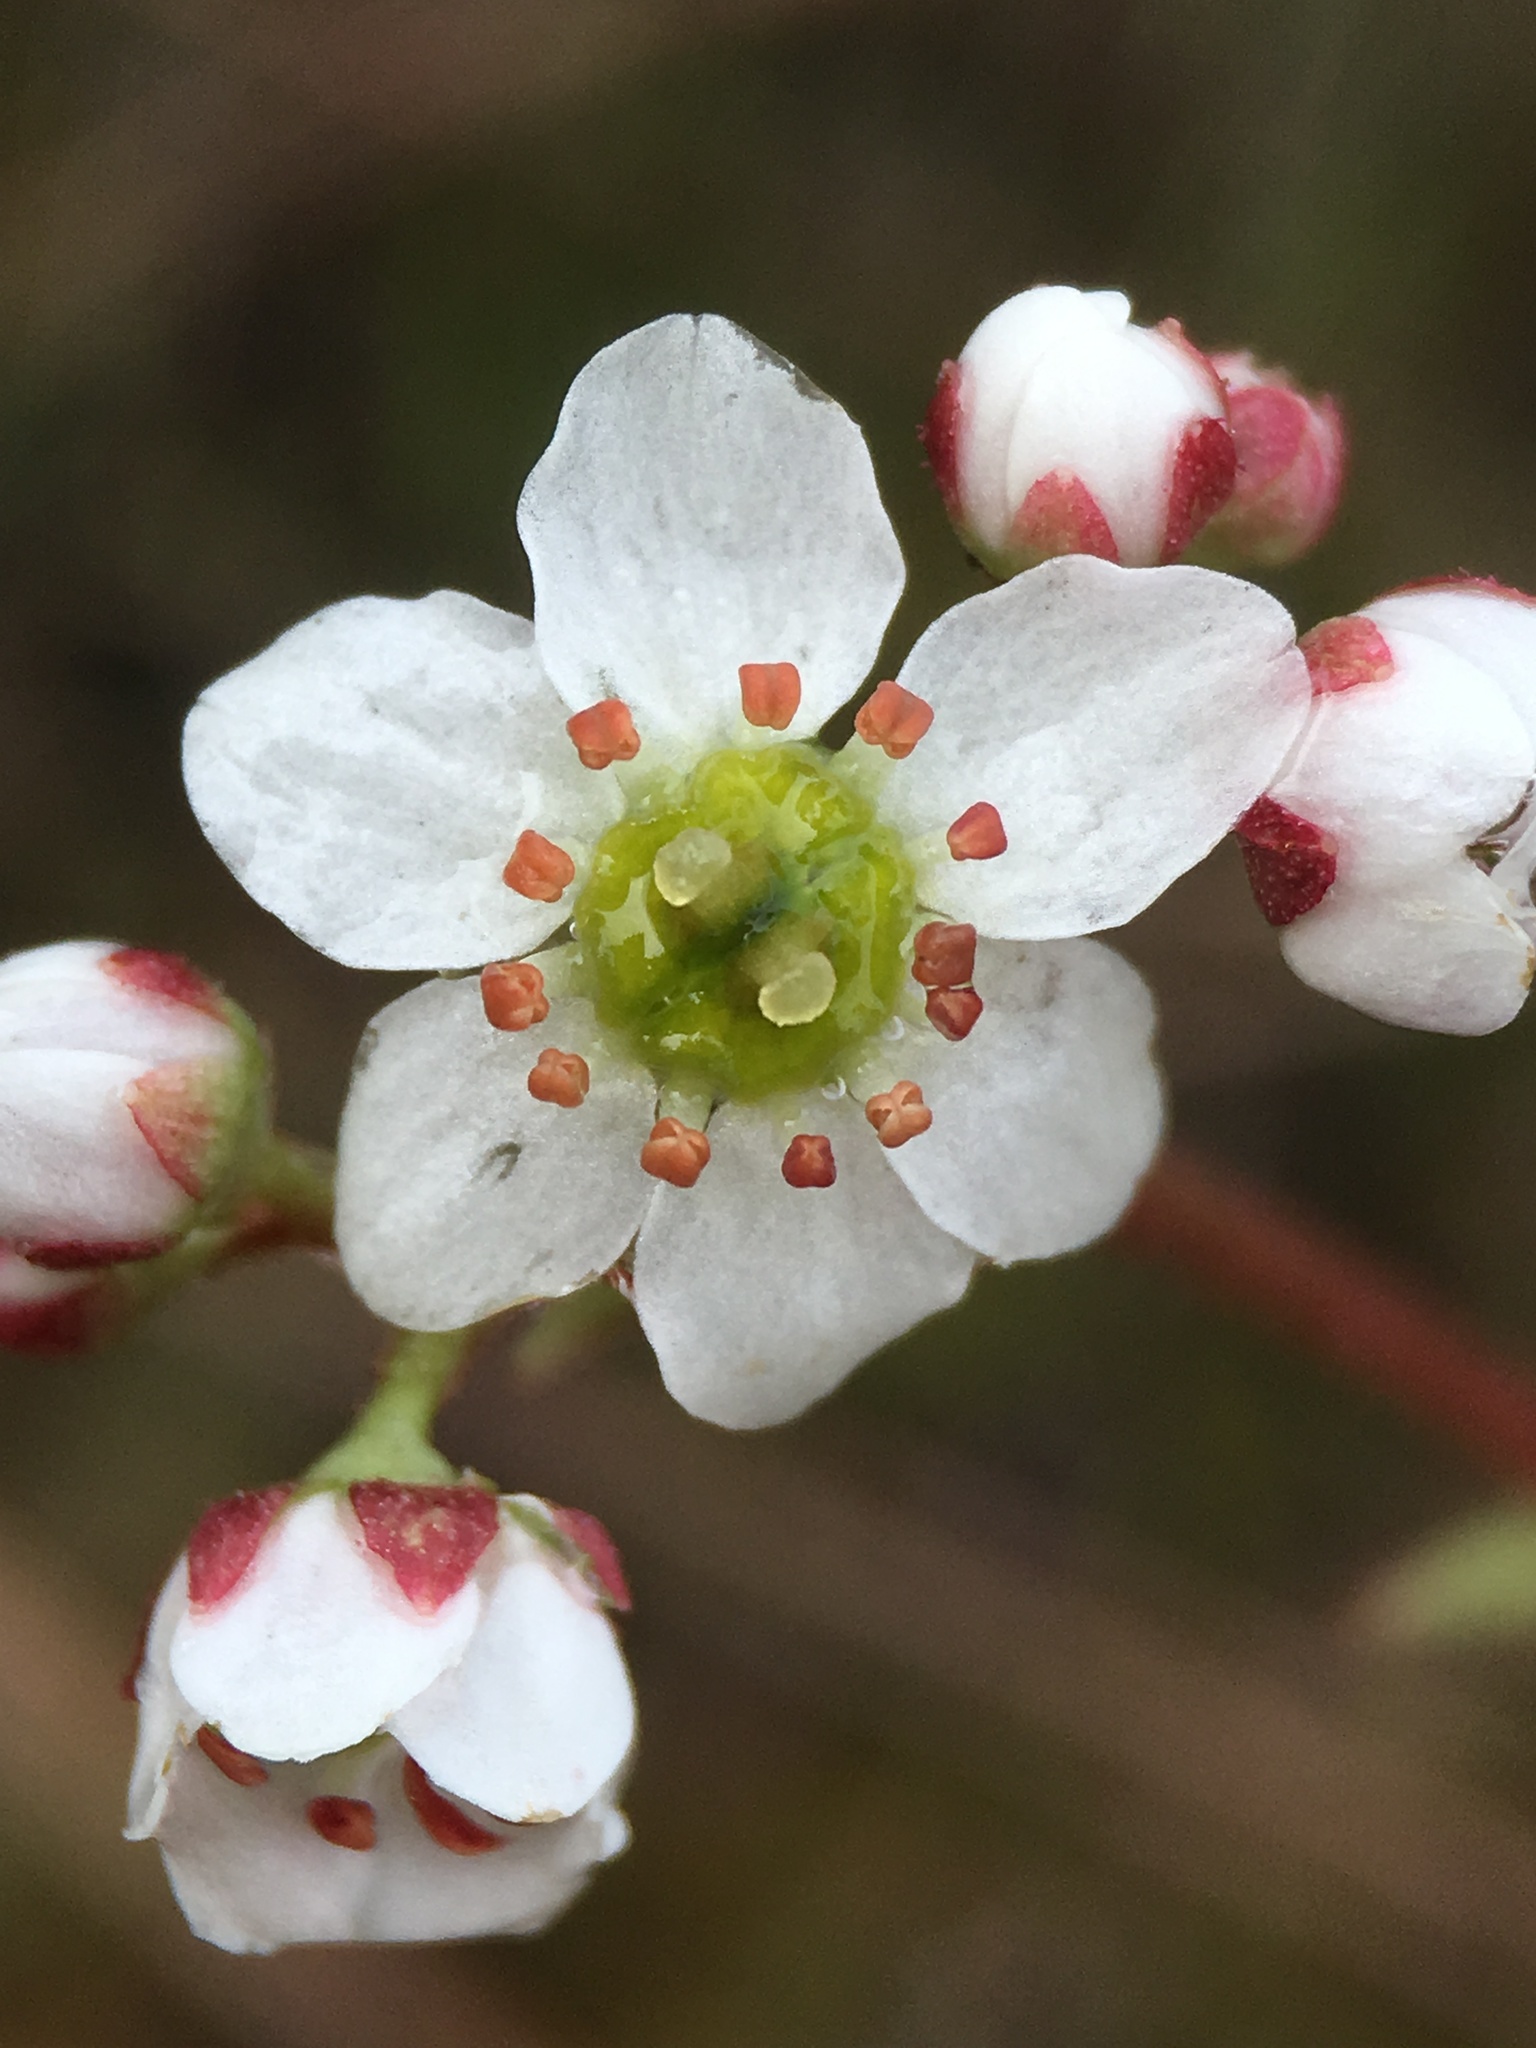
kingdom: Plantae
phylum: Tracheophyta
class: Magnoliopsida
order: Saxifragales
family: Saxifragaceae
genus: Micranthes
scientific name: Micranthes californica
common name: California saxifrage
